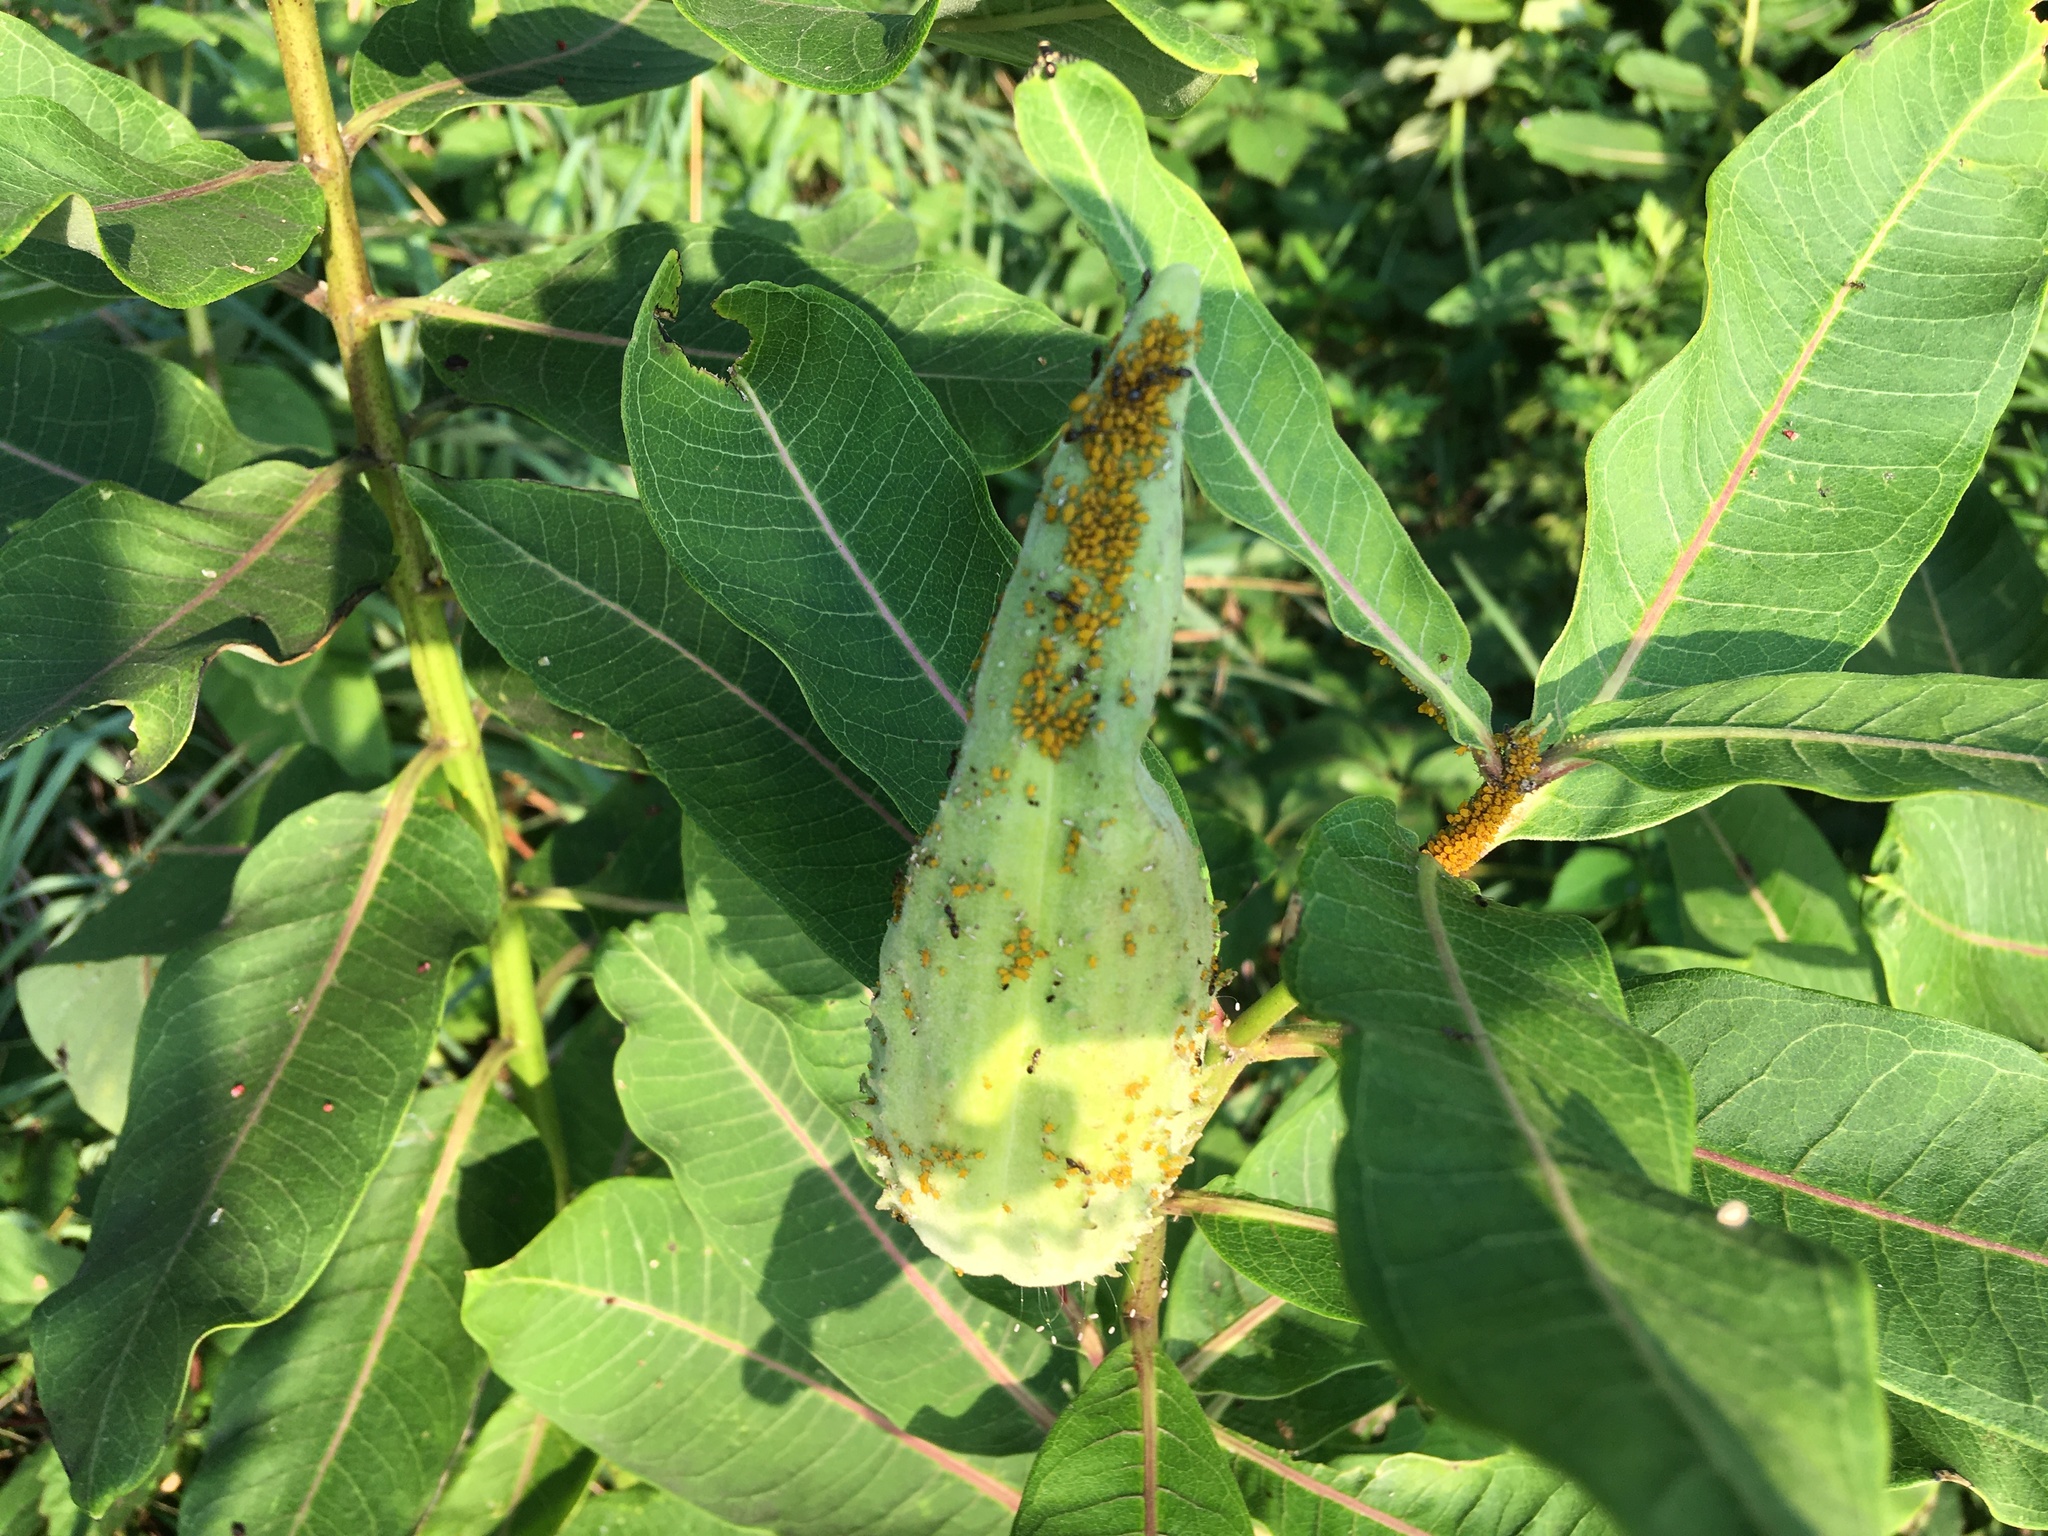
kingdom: Plantae
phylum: Tracheophyta
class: Magnoliopsida
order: Gentianales
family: Apocynaceae
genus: Asclepias
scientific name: Asclepias syriaca
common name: Common milkweed
